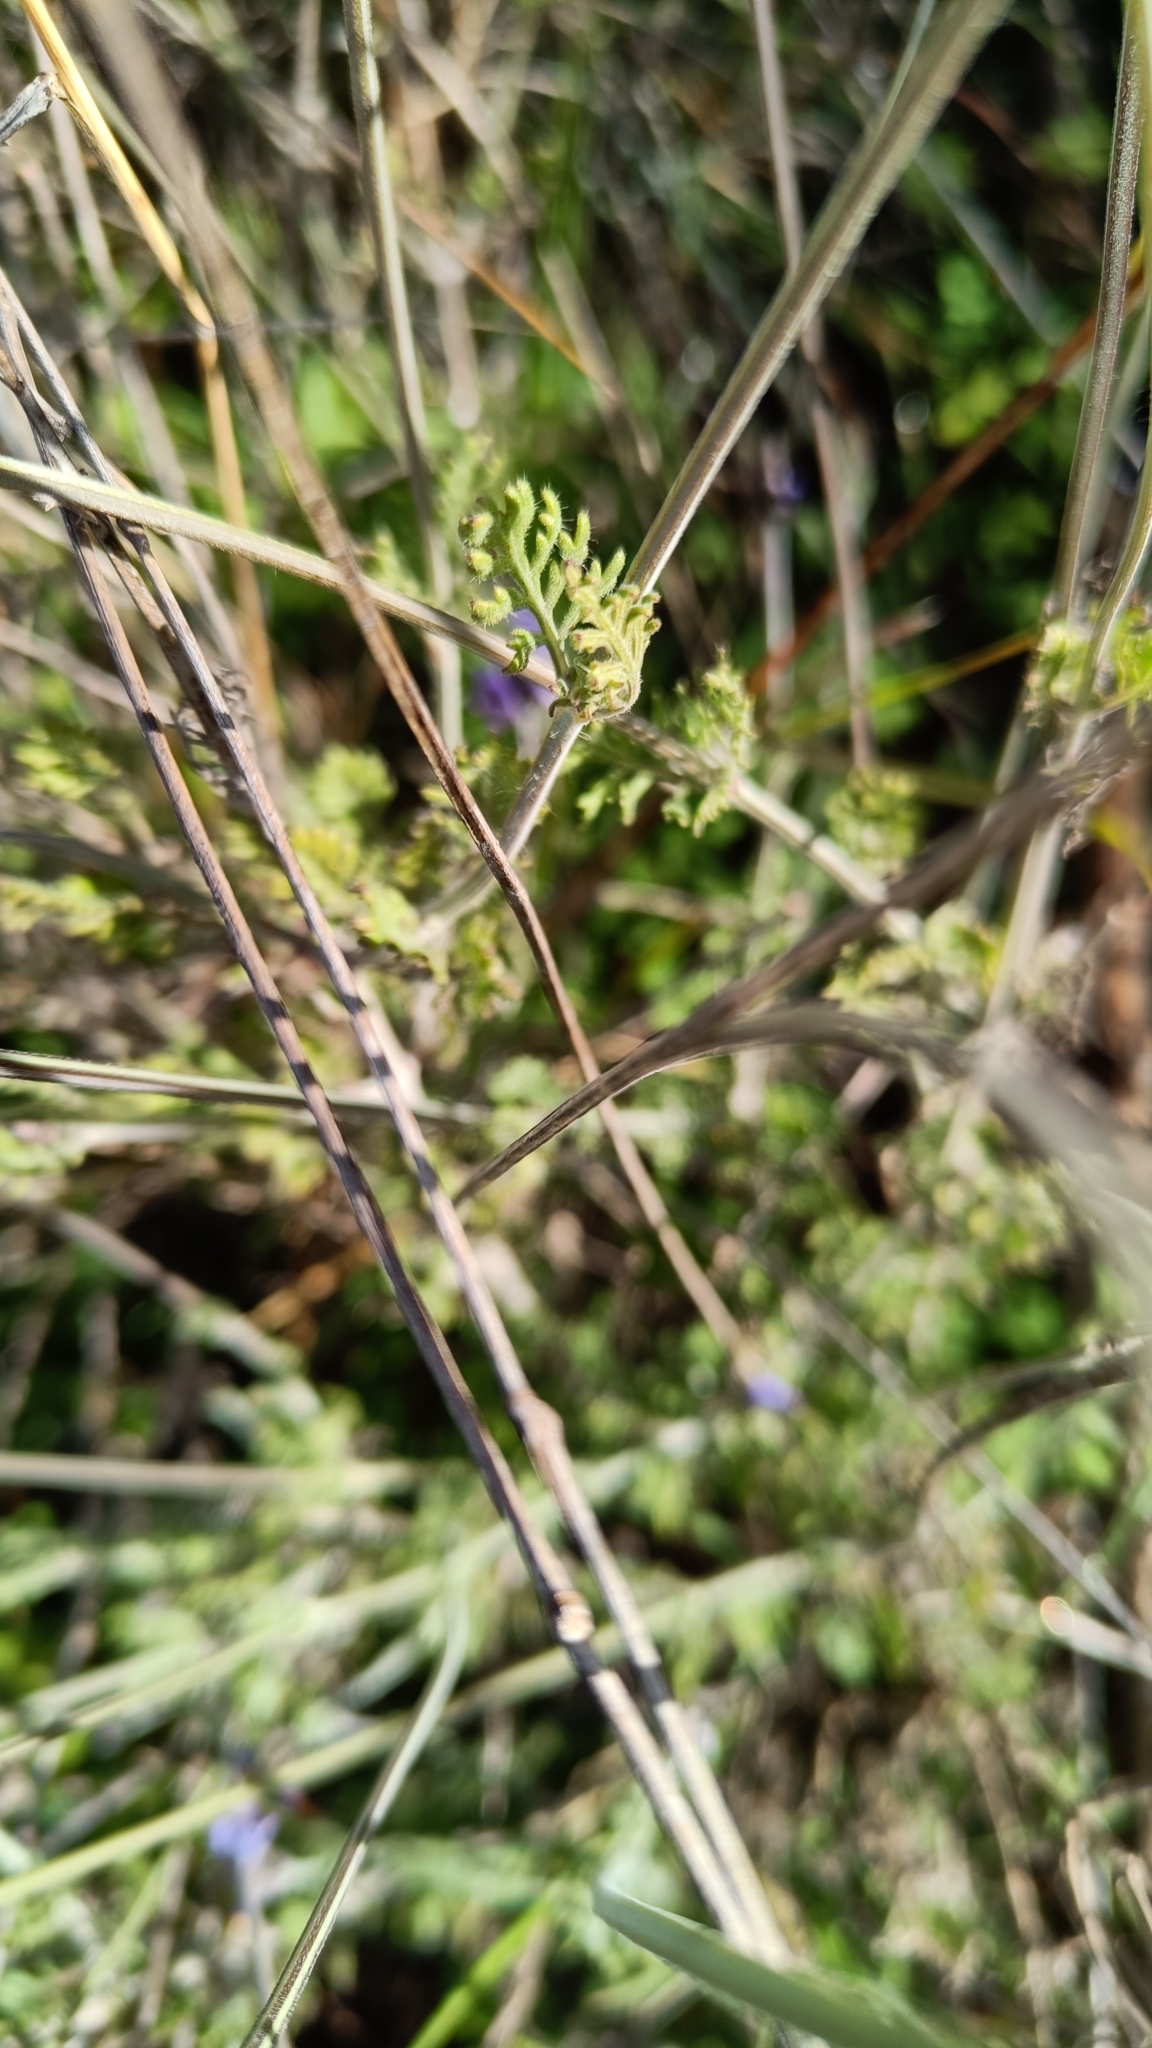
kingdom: Plantae
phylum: Tracheophyta
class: Magnoliopsida
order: Lamiales
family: Lamiaceae
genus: Lavandula
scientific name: Lavandula multifida
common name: Fern-leaf lavender
